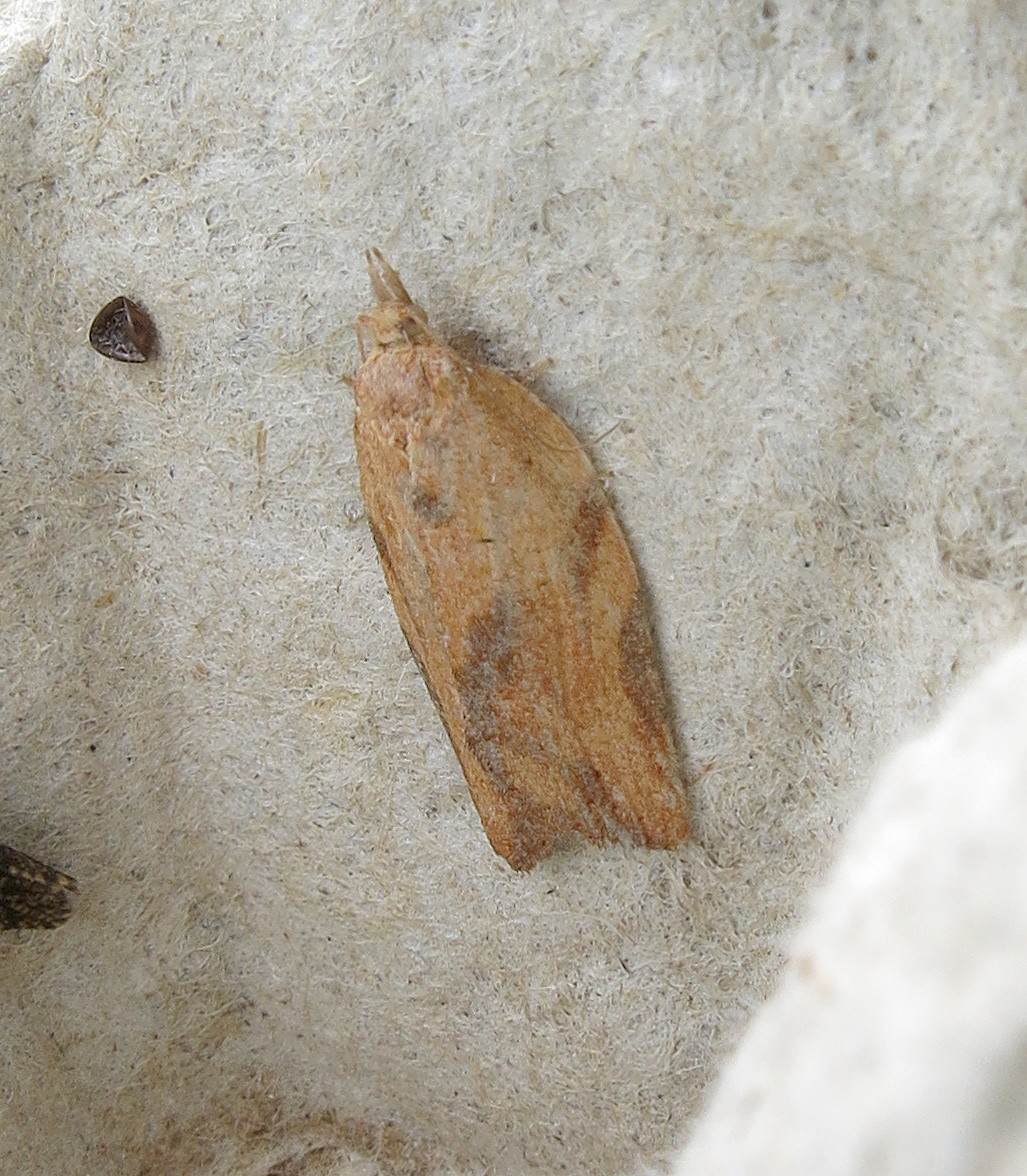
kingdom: Animalia
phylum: Arthropoda
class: Insecta
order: Lepidoptera
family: Tortricidae
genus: Epiphyas
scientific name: Epiphyas postvittana
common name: Light brown apple moth
